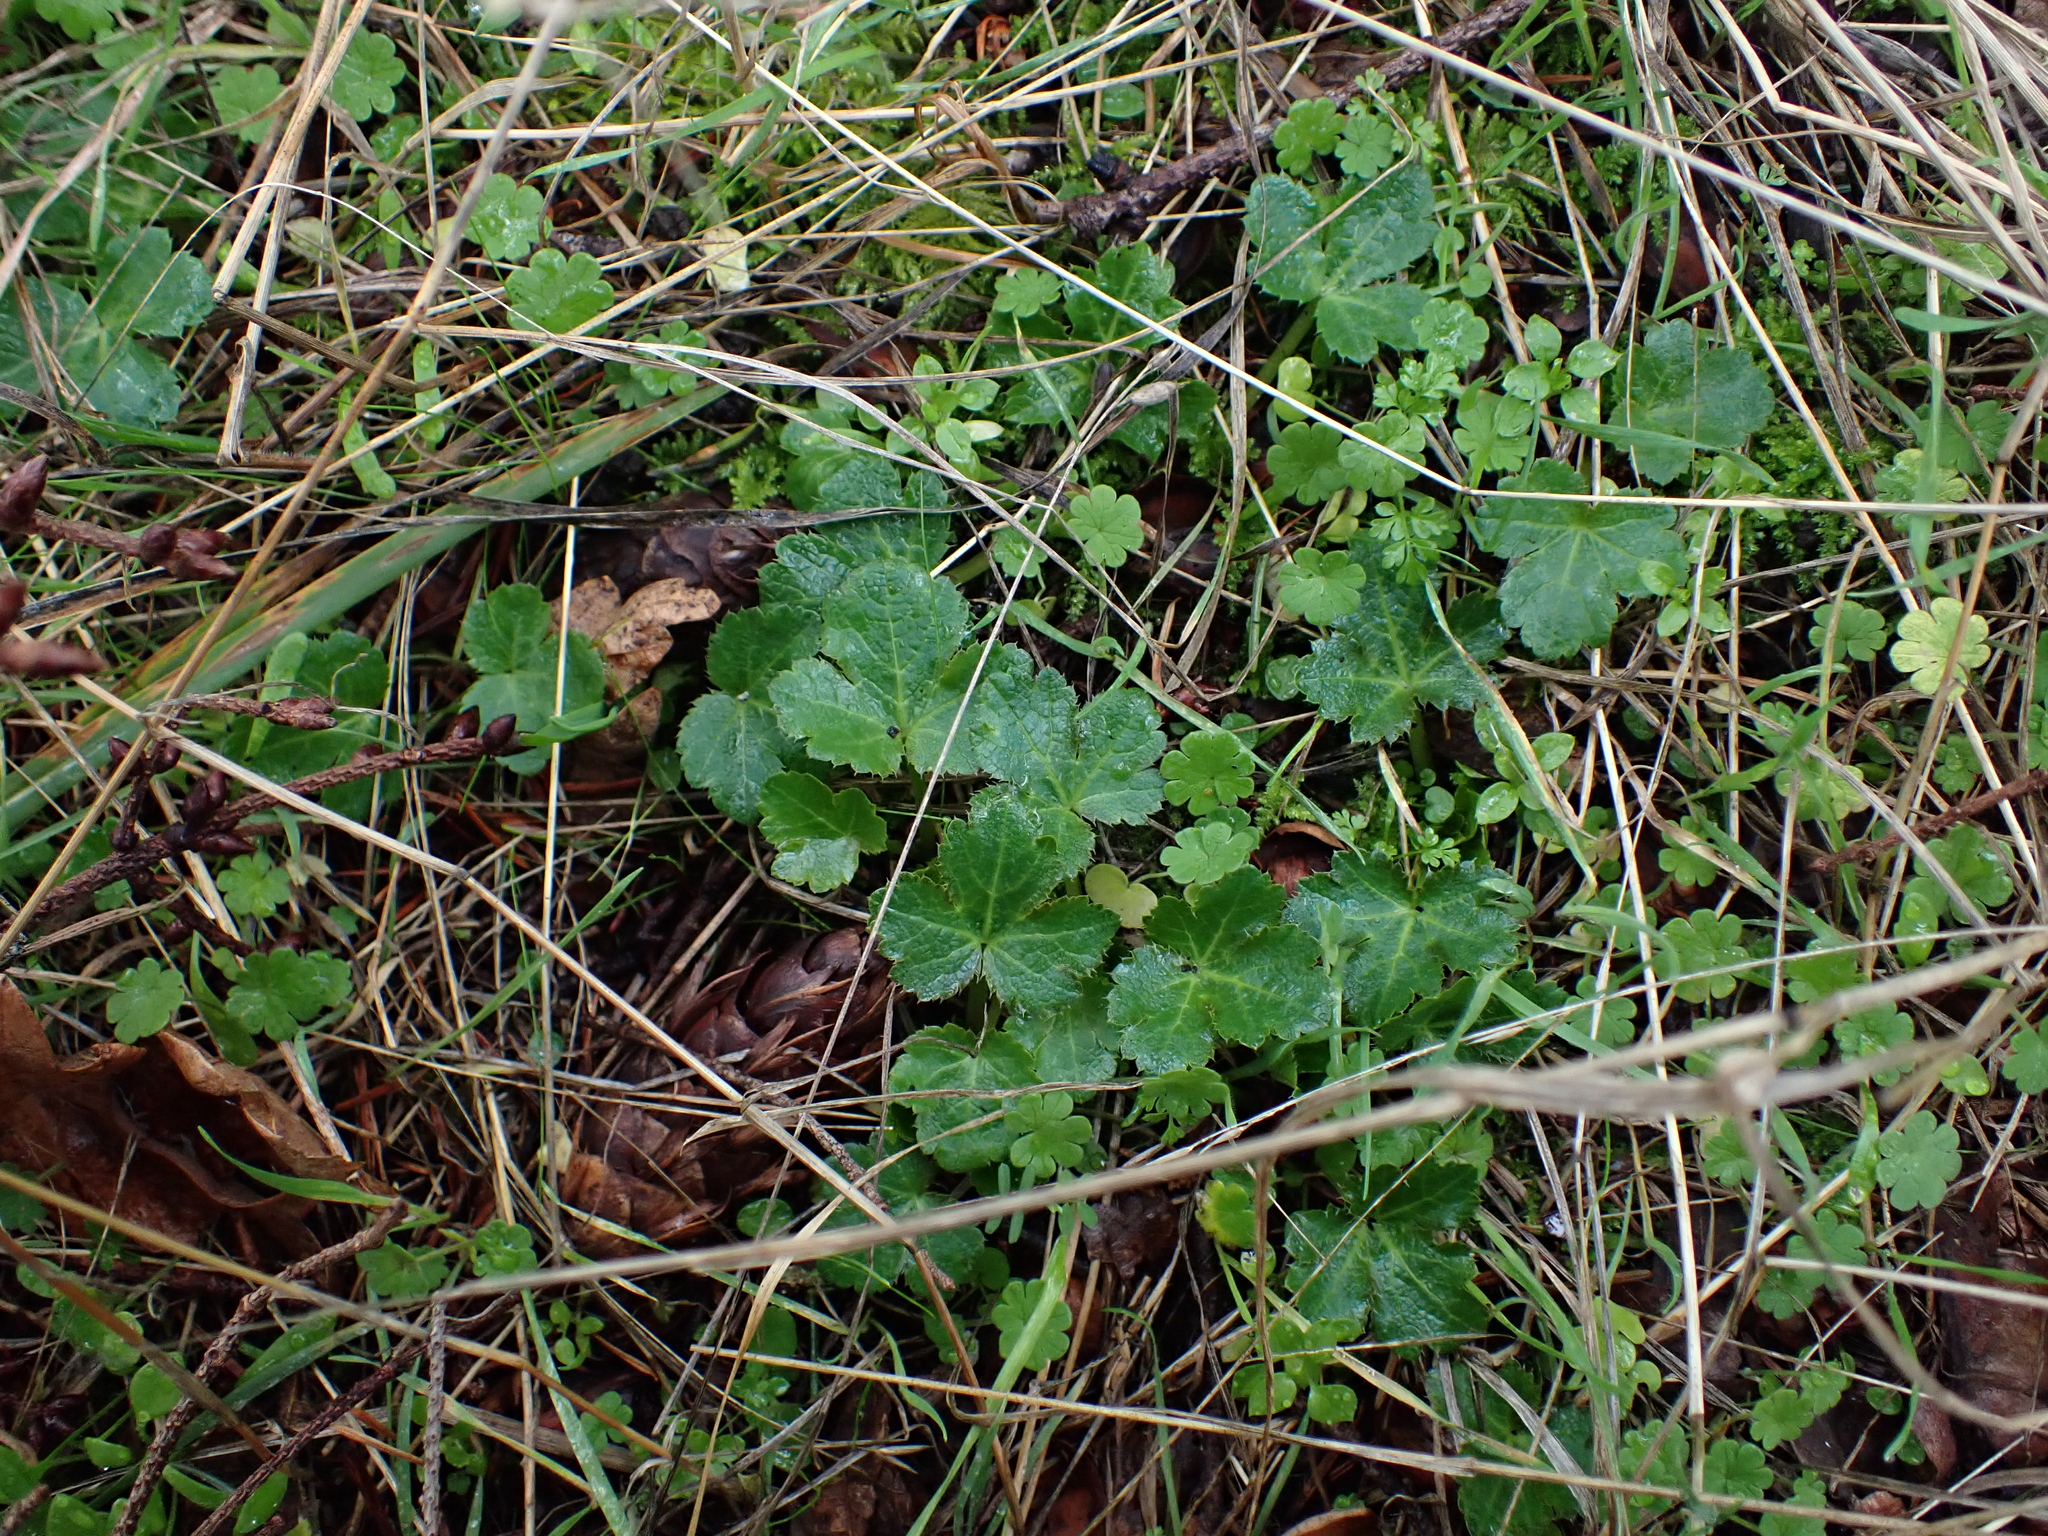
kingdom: Plantae
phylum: Tracheophyta
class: Magnoliopsida
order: Apiales
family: Apiaceae
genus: Sanicula
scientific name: Sanicula crassicaulis
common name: Western snakeroot
